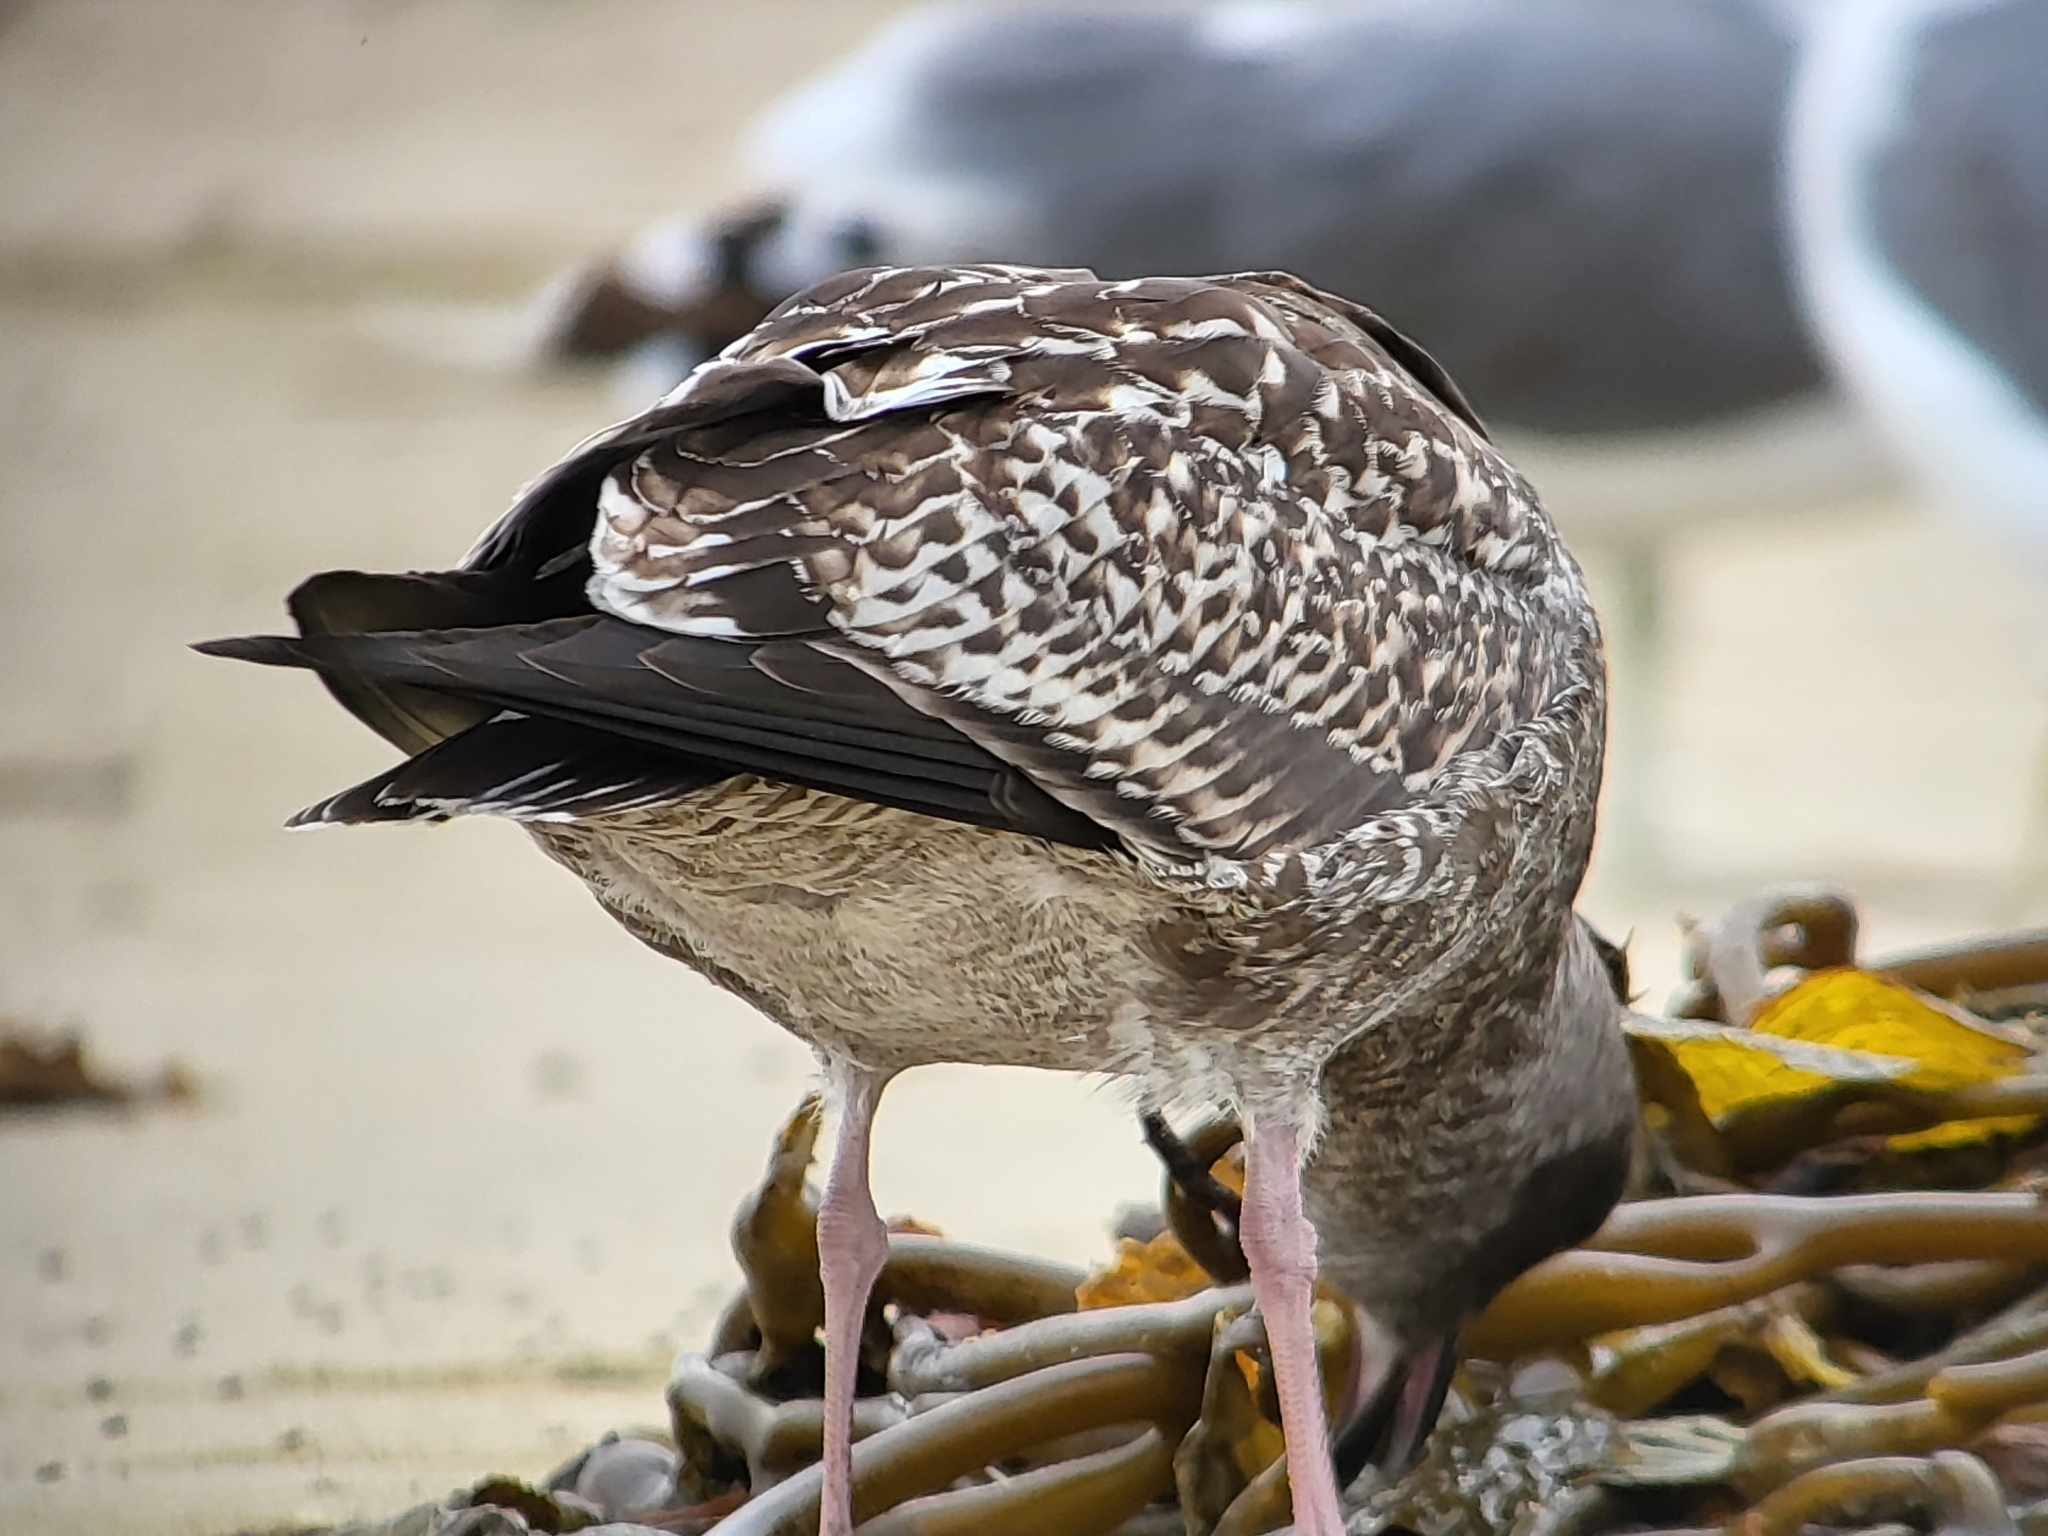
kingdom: Animalia
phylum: Chordata
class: Aves
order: Charadriiformes
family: Laridae
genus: Larus
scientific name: Larus occidentalis
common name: Western gull
